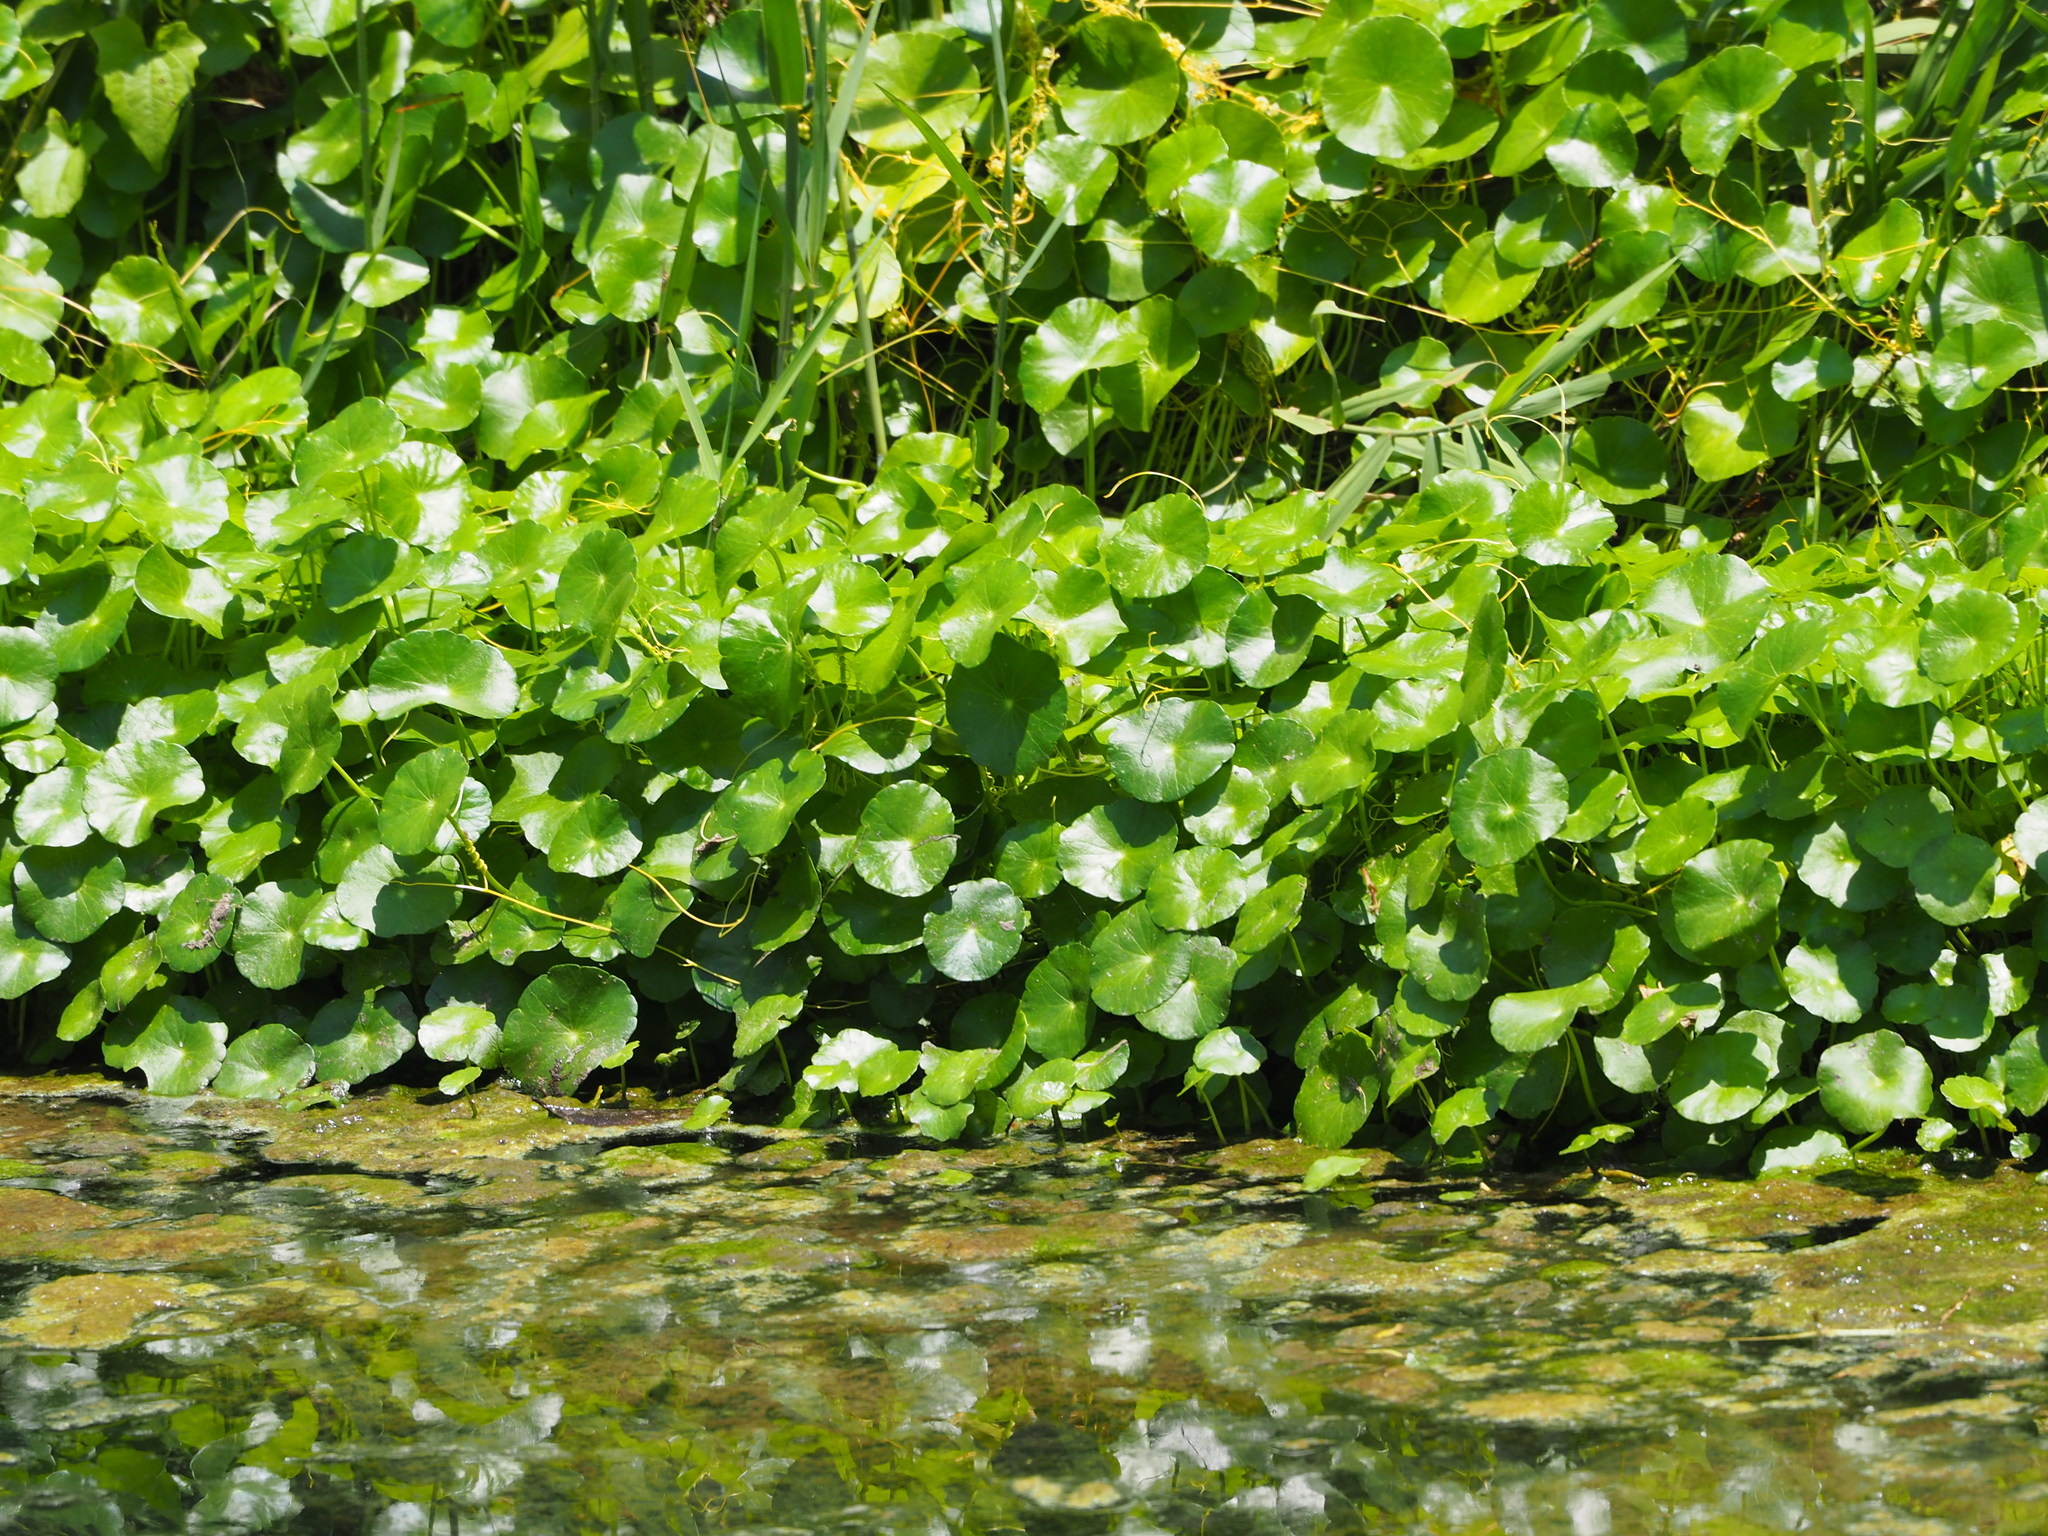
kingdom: Plantae
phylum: Tracheophyta
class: Magnoliopsida
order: Apiales
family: Araliaceae
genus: Hydrocotyle
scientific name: Hydrocotyle verticillata
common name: Whorled marshpennywort
